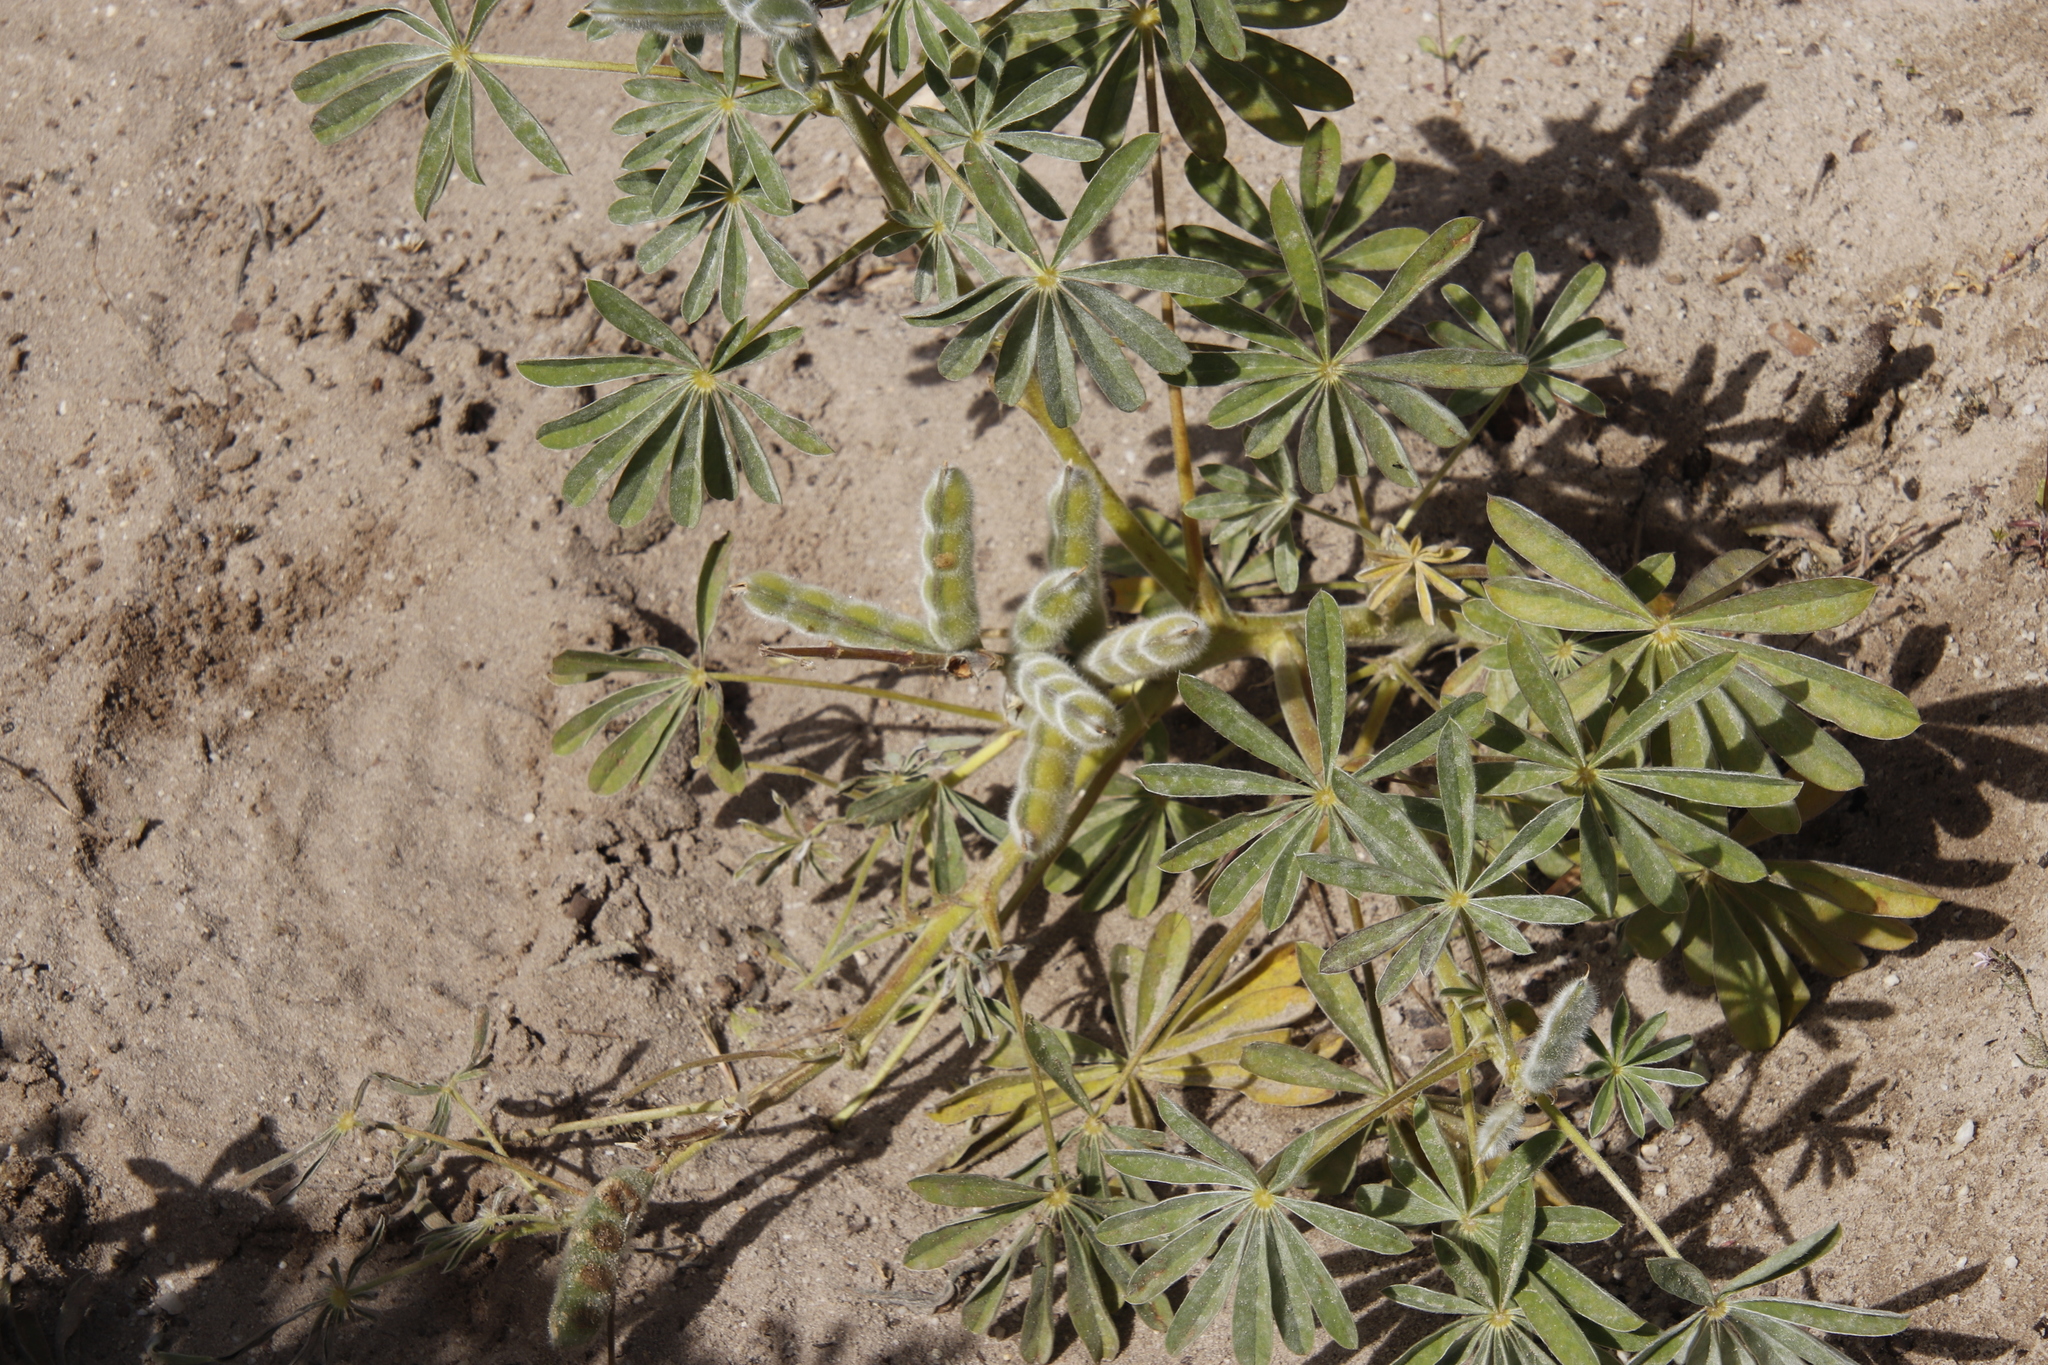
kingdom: Plantae
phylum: Tracheophyta
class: Magnoliopsida
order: Fabales
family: Fabaceae
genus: Lupinus
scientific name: Lupinus cosentinii
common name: Hairy blue lupin
